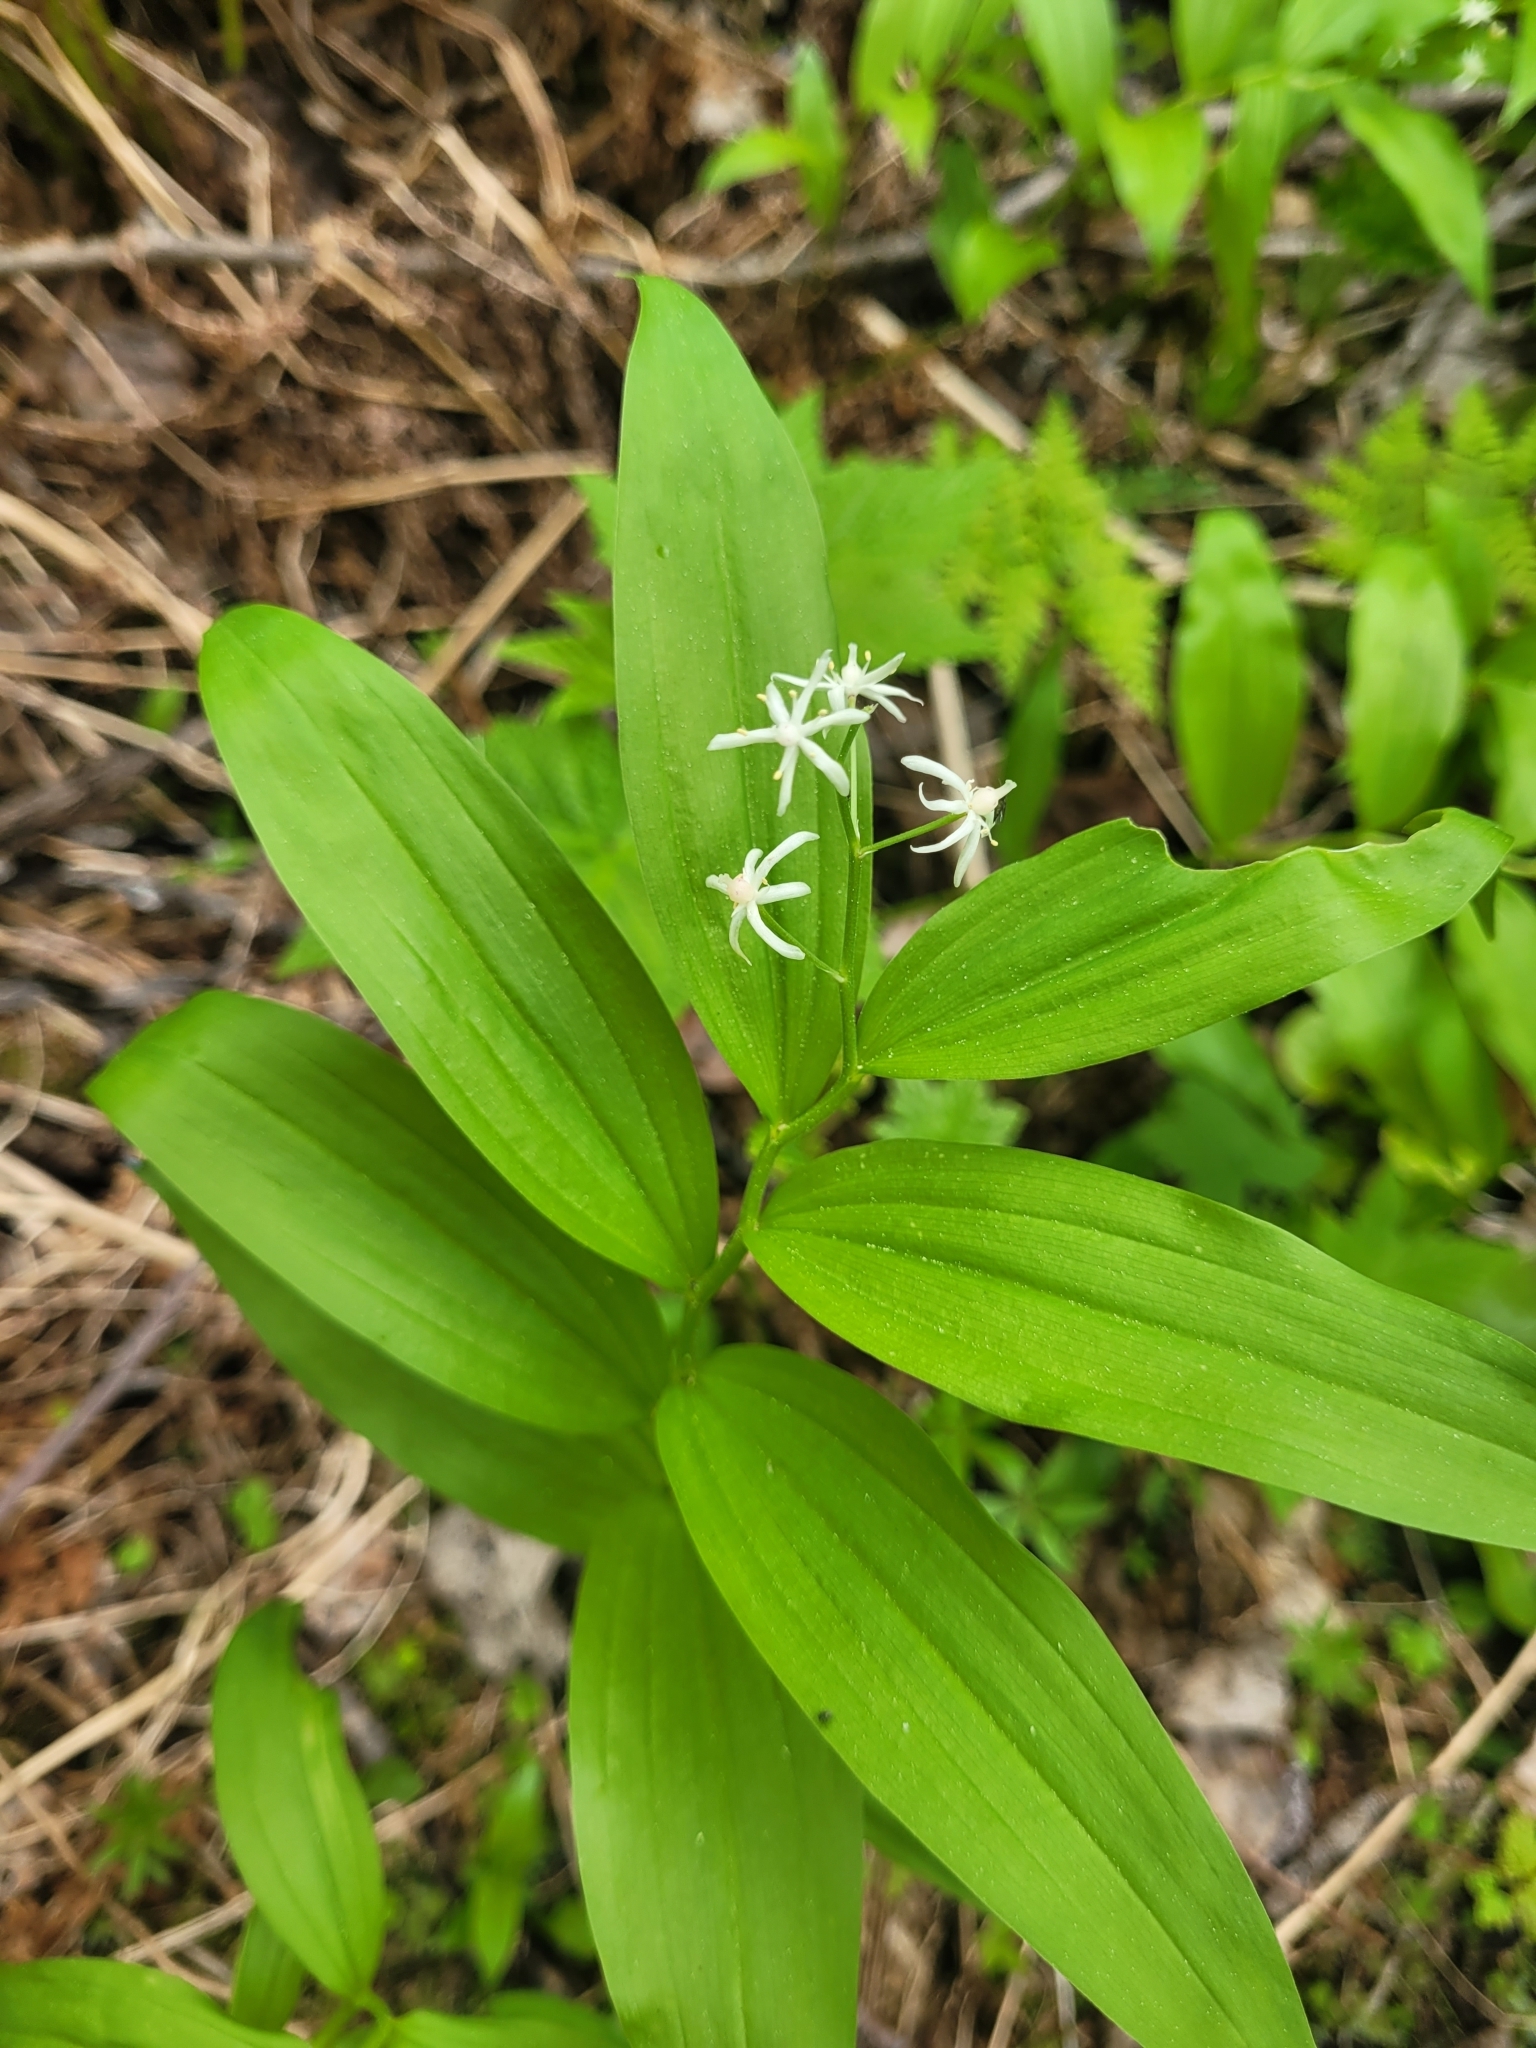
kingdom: Plantae
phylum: Tracheophyta
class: Liliopsida
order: Asparagales
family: Asparagaceae
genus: Maianthemum
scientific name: Maianthemum stellatum
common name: Little false solomon's seal
